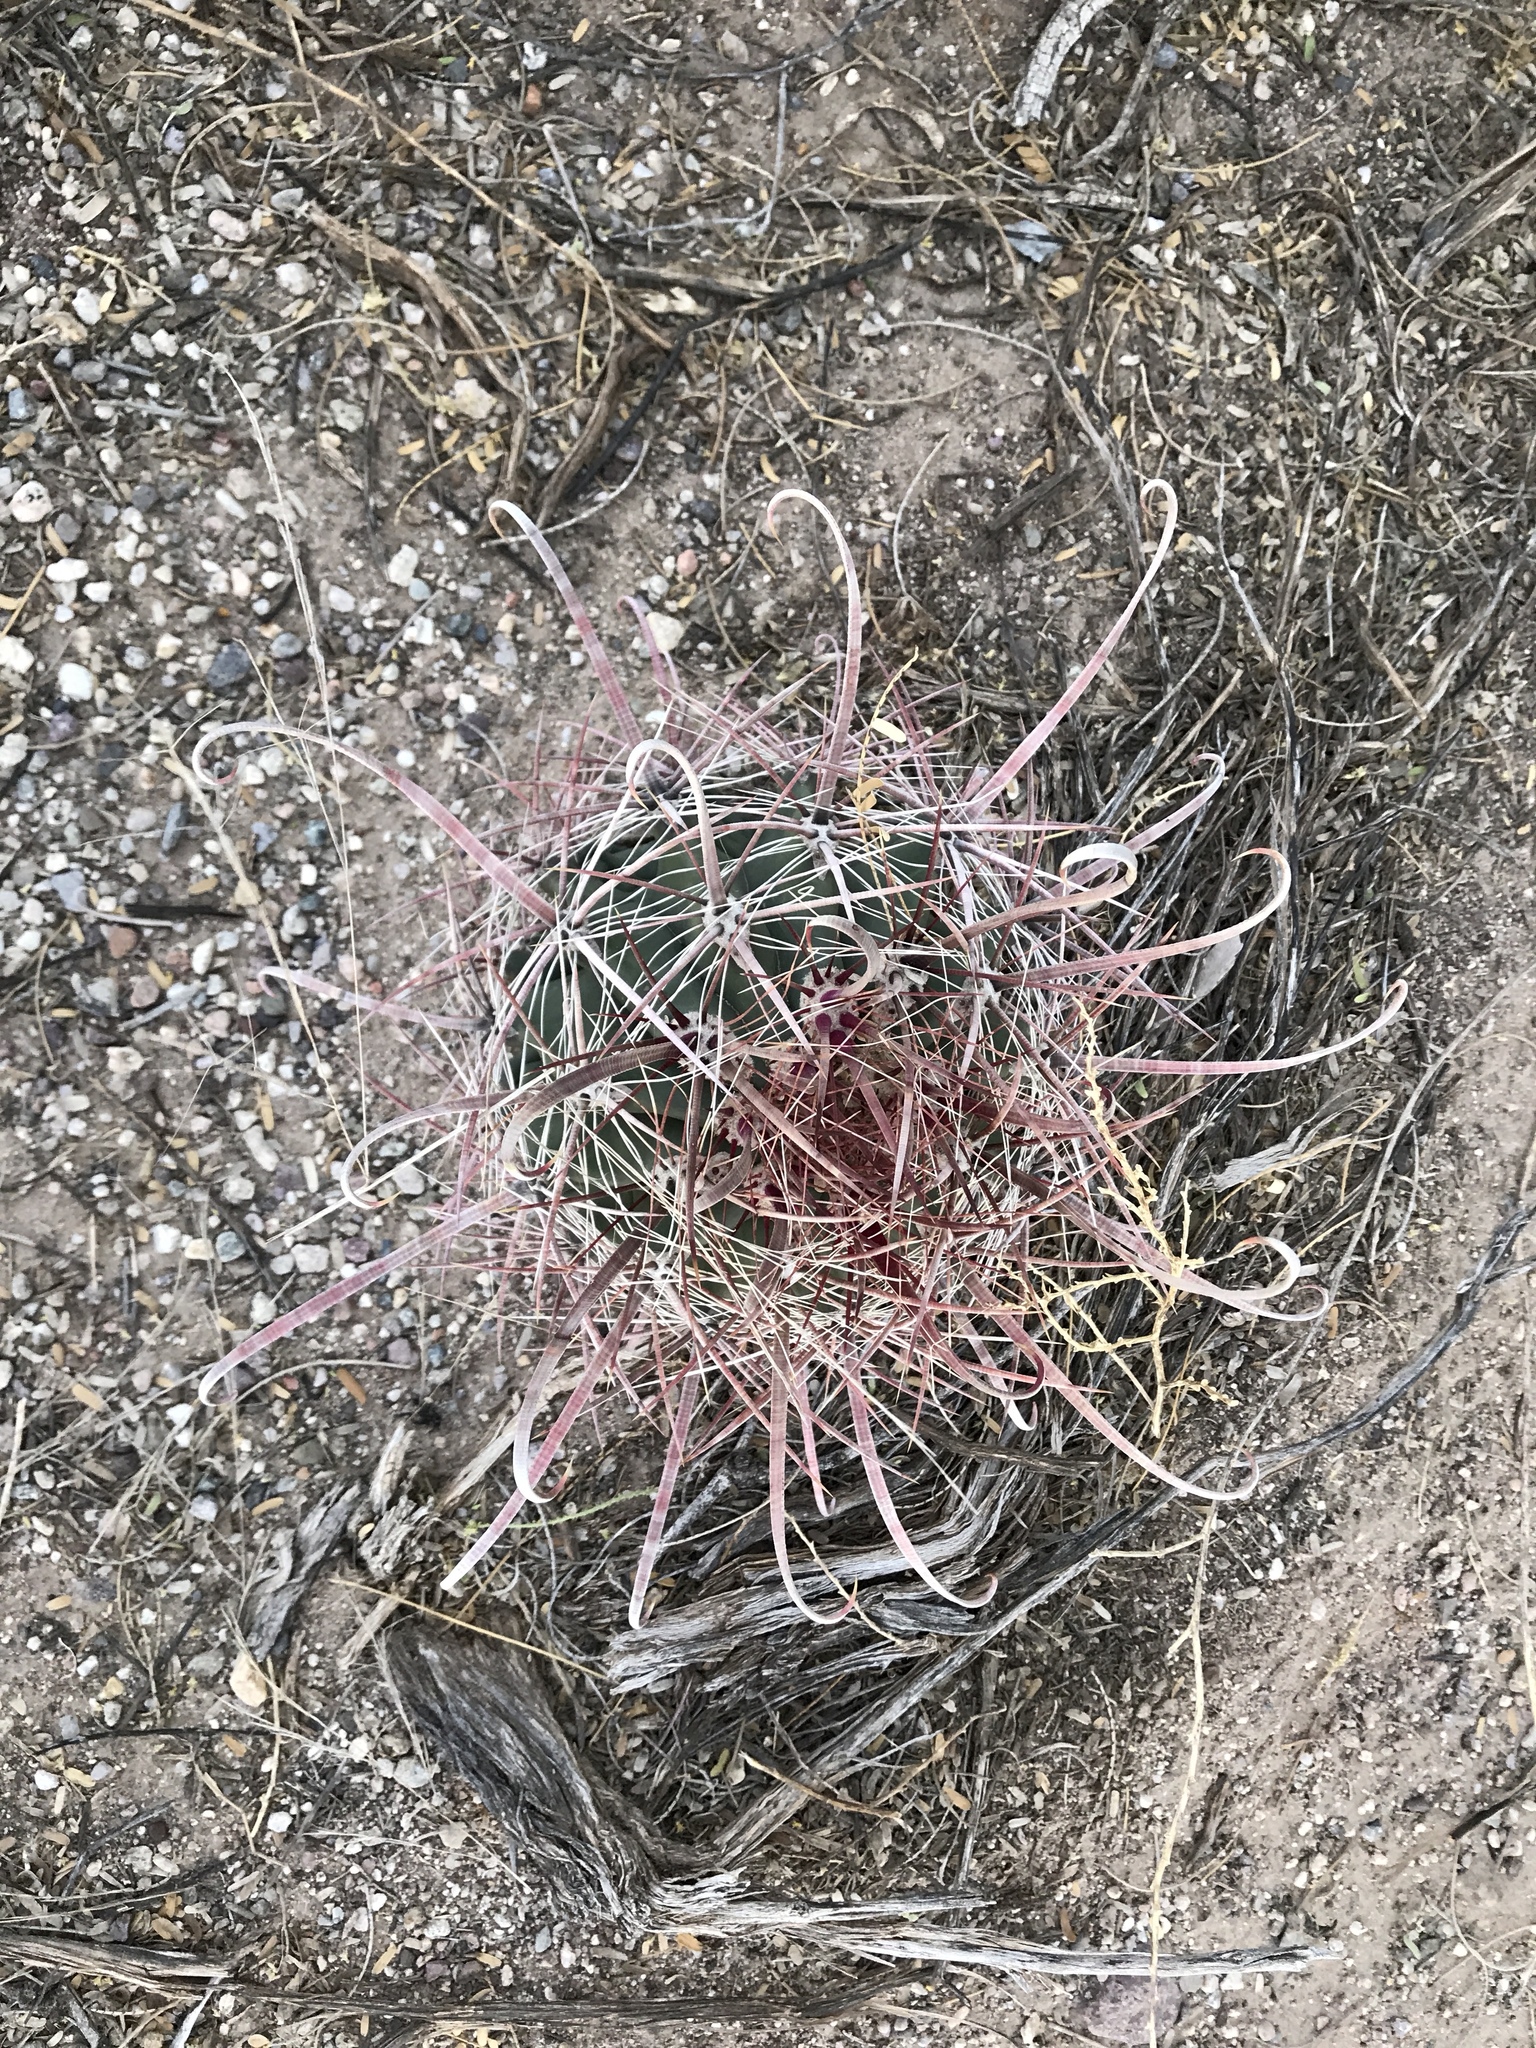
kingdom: Plantae
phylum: Tracheophyta
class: Magnoliopsida
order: Caryophyllales
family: Cactaceae
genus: Ferocactus
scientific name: Ferocactus wislizeni
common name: Candy barrel cactus
